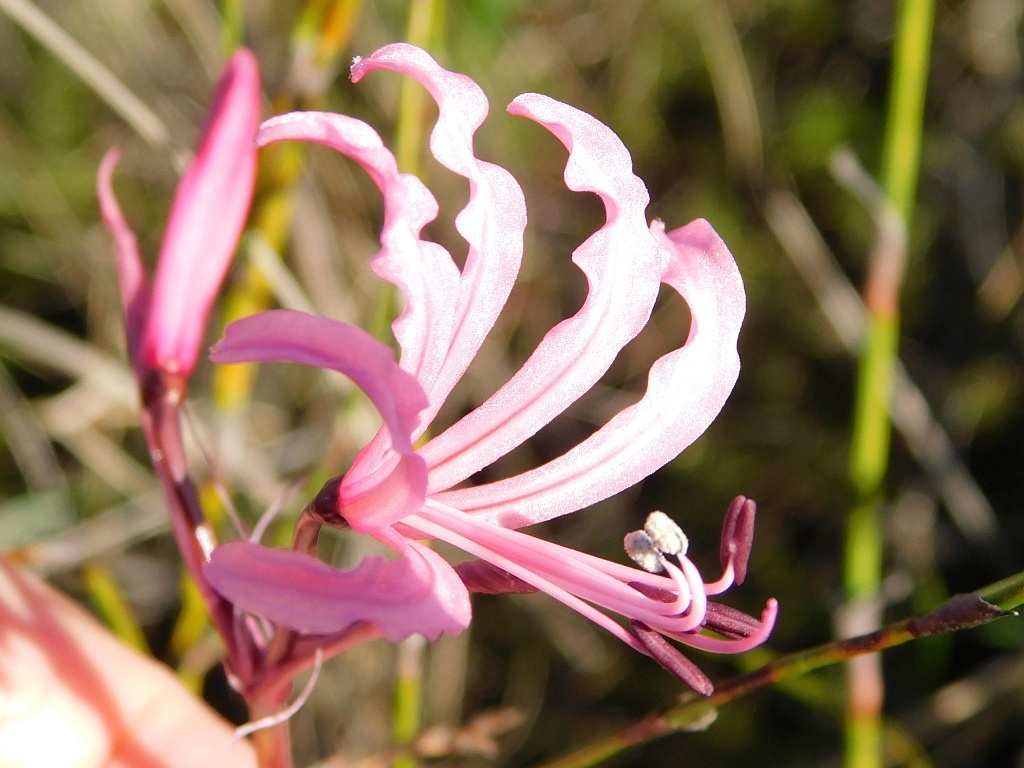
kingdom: Plantae
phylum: Tracheophyta
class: Liliopsida
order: Asparagales
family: Amaryllidaceae
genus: Nerine
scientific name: Nerine humilis
